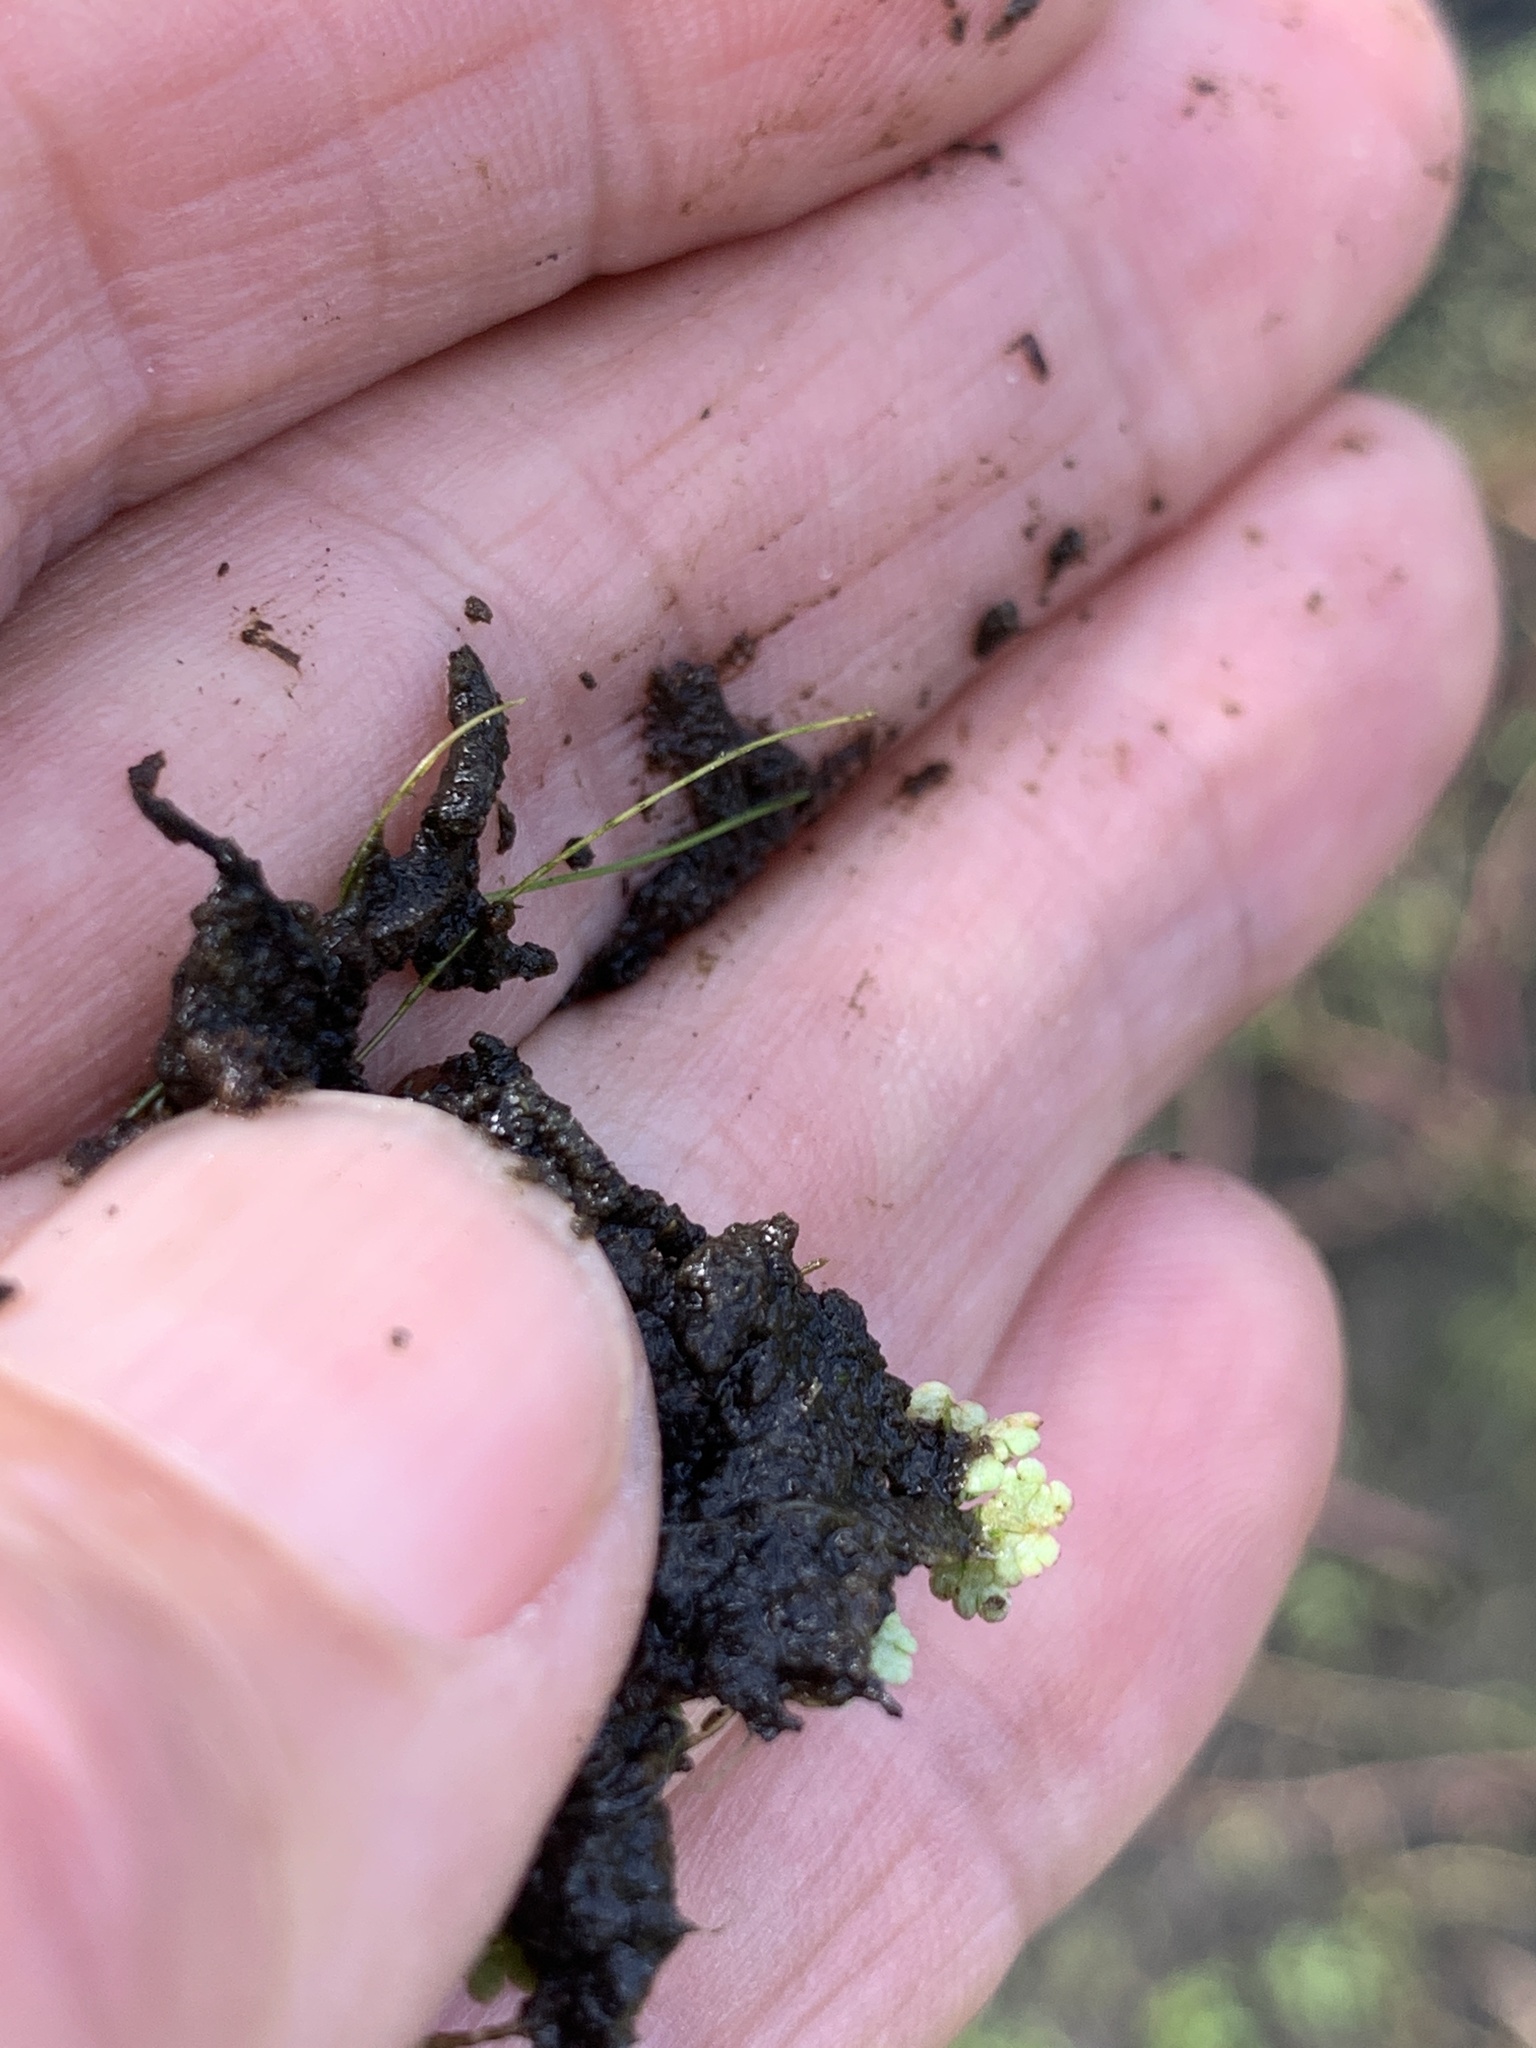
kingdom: Plantae
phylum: Tracheophyta
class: Polypodiopsida
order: Salviniales
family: Salviniaceae
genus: Azolla
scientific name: Azolla caroliniana
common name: Carolina mosquitofern
